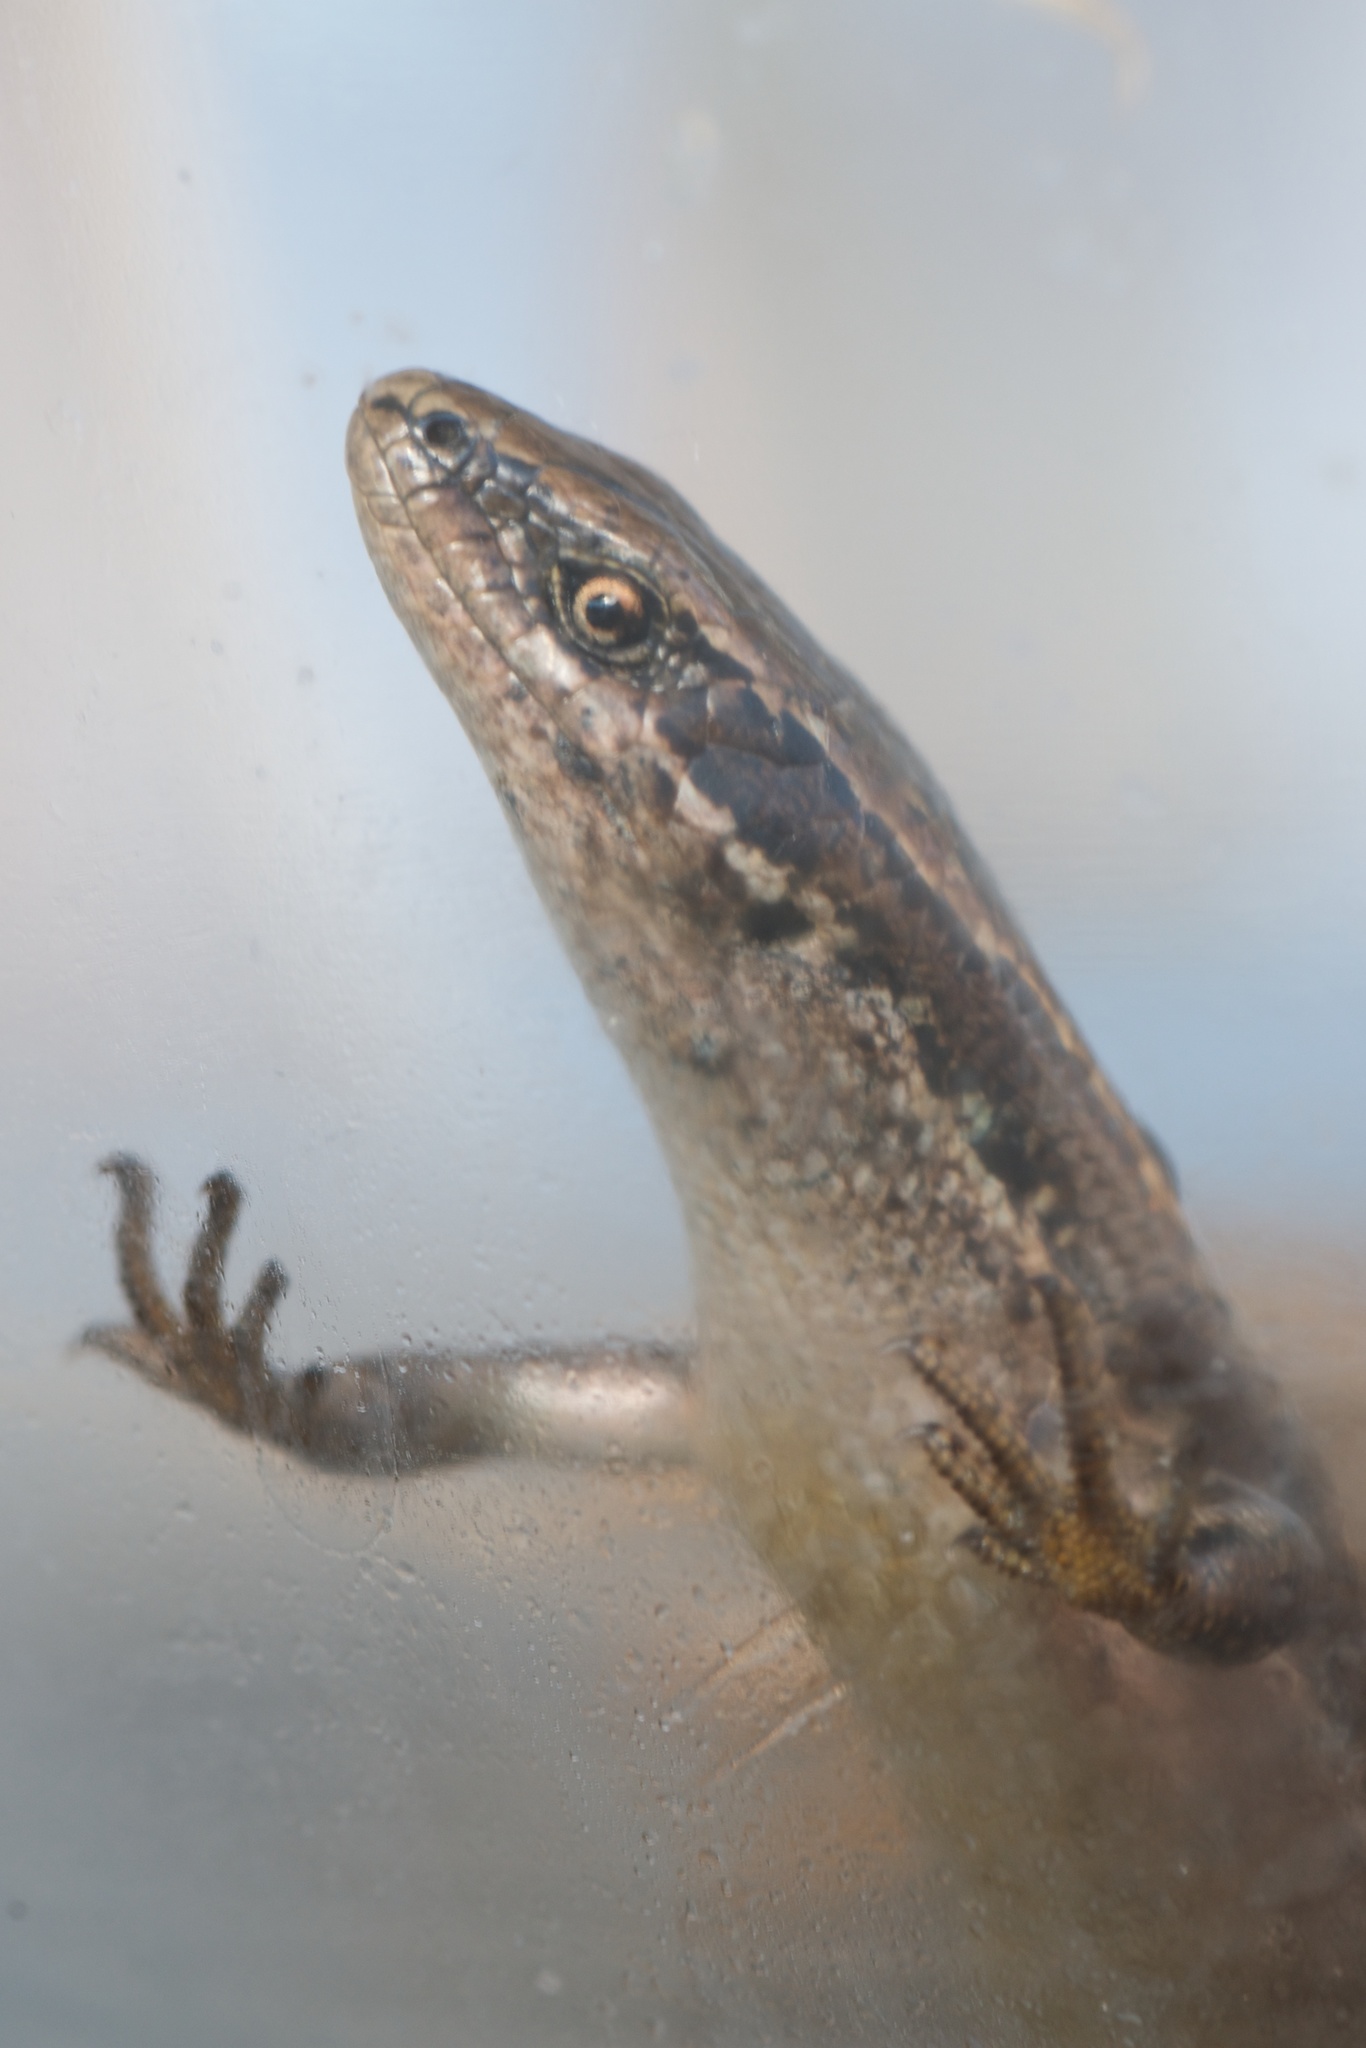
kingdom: Animalia
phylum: Chordata
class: Squamata
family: Scincidae
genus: Oligosoma
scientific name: Oligosoma polychroma
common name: Common new zealand skink
